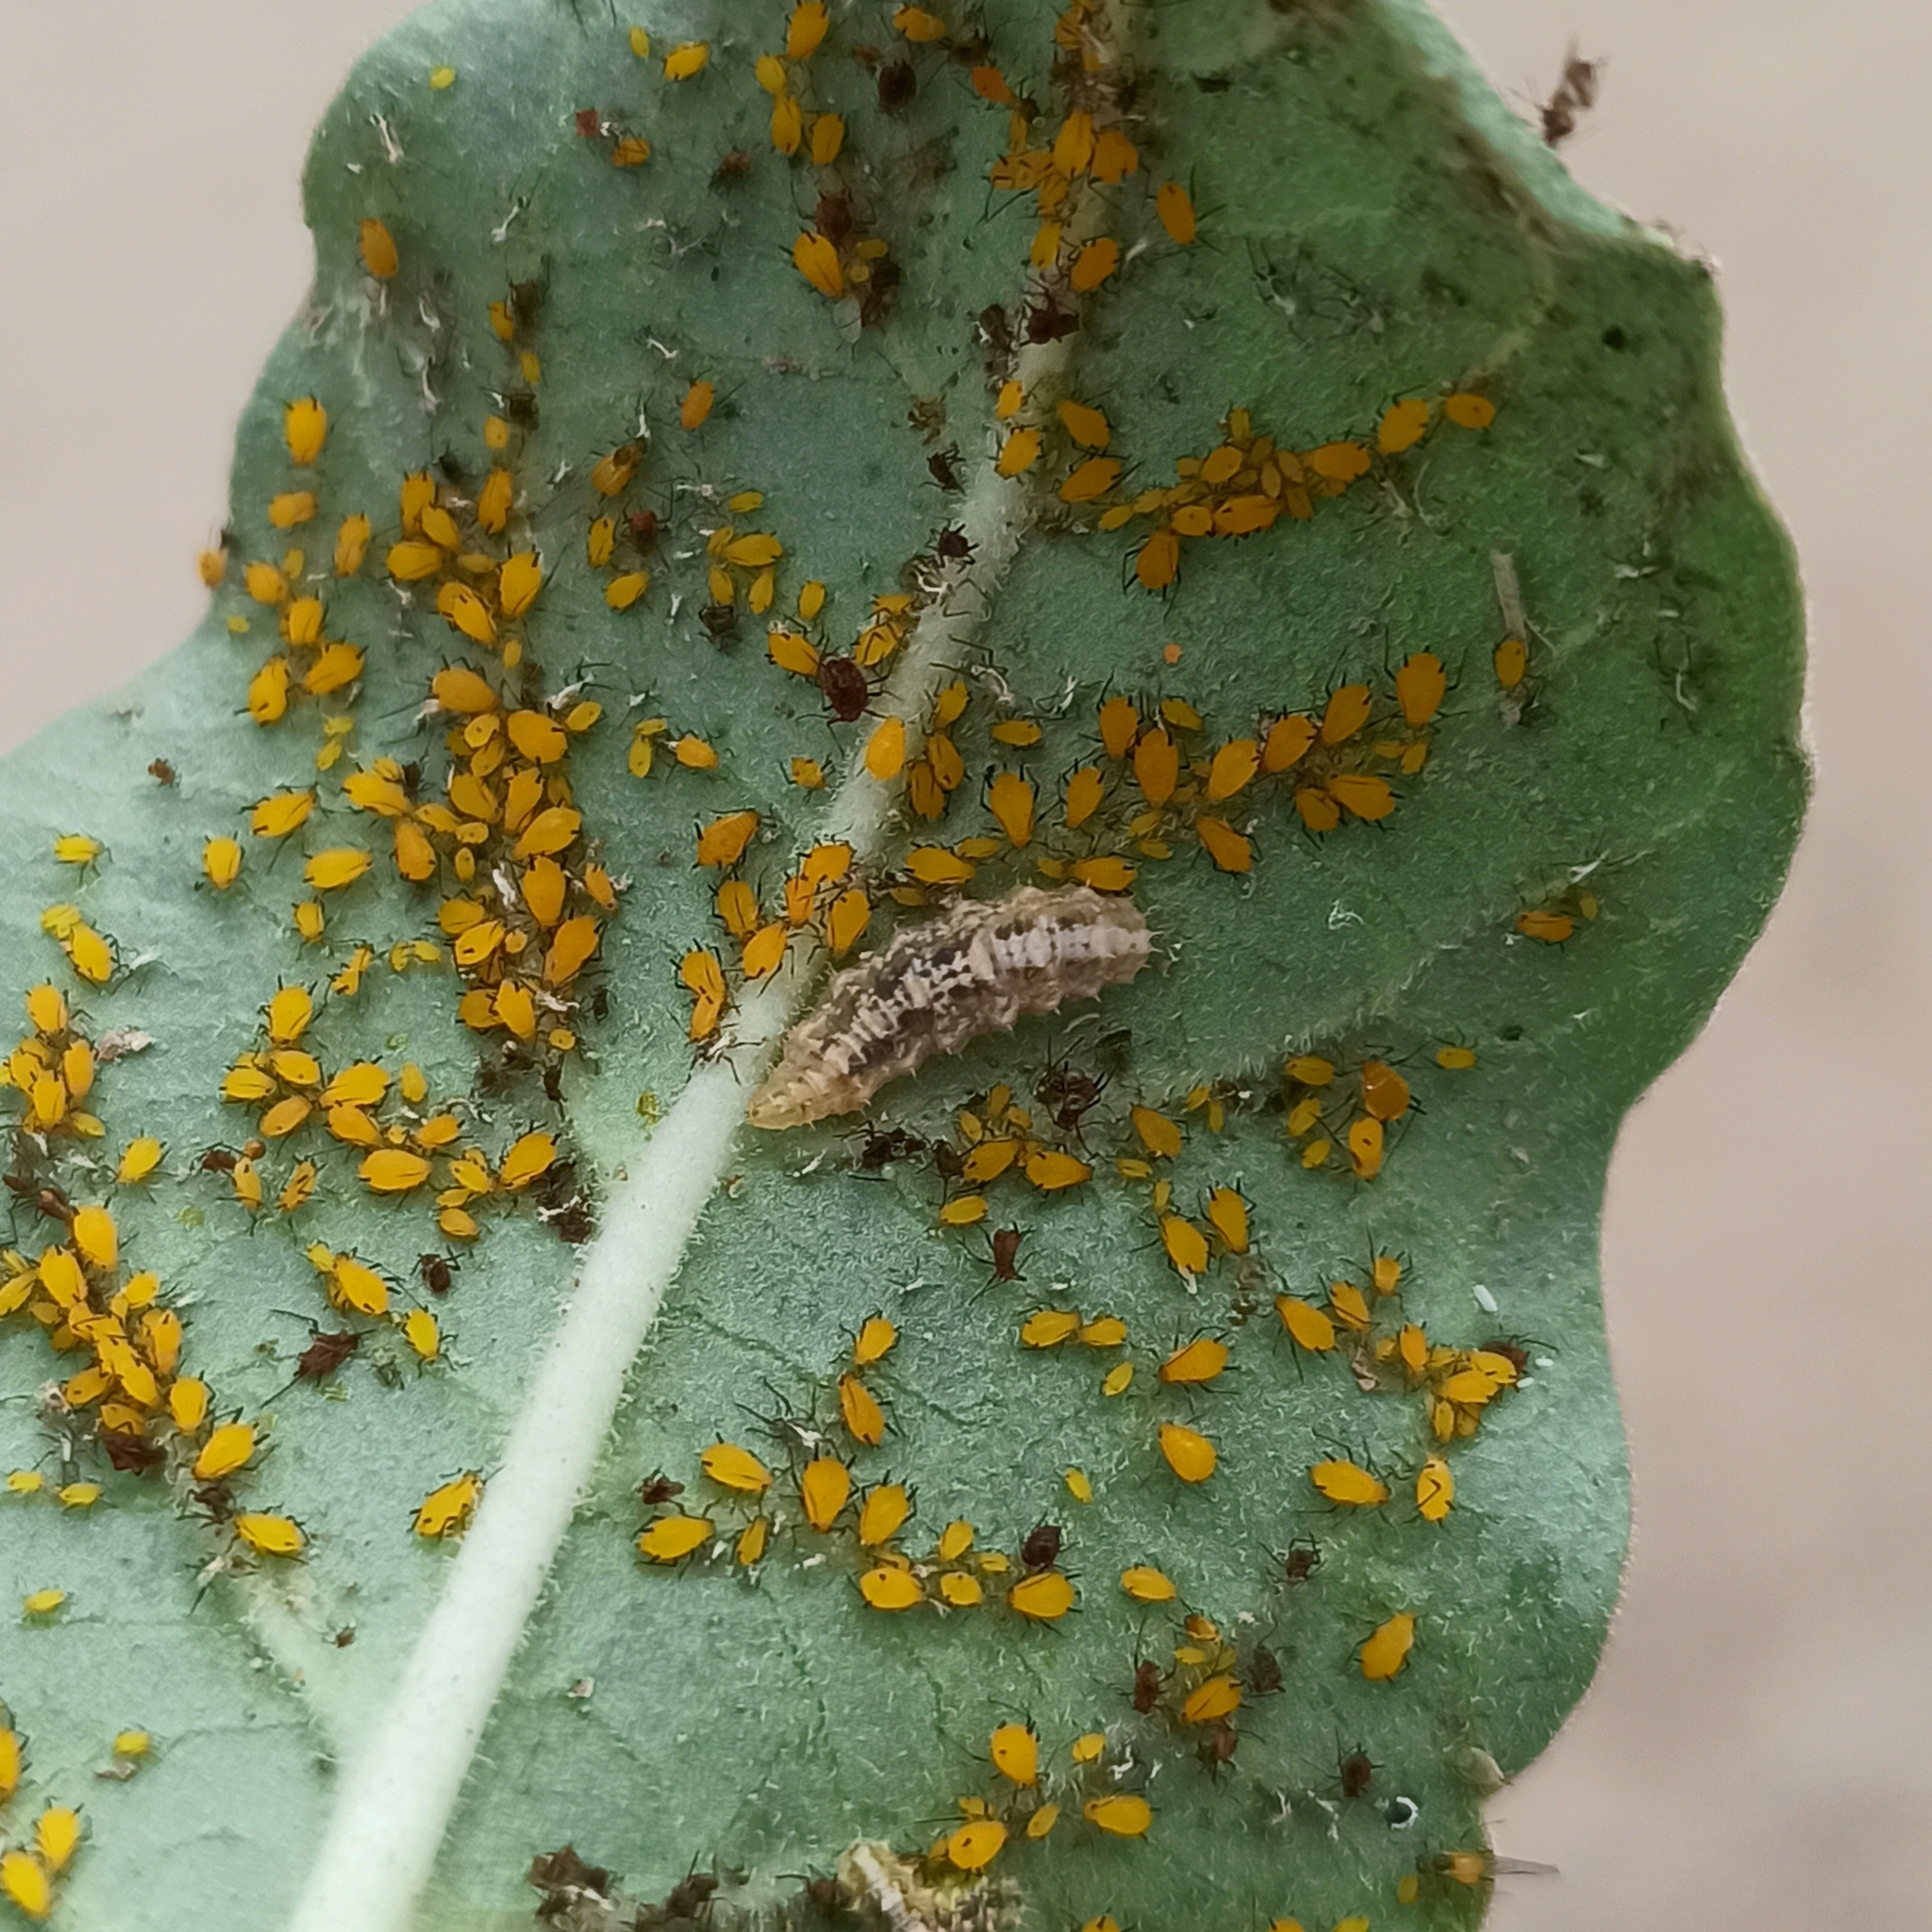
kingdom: Animalia
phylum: Arthropoda
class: Insecta
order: Diptera
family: Syrphidae
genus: Dioprosopa
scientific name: Dioprosopa clavatus
